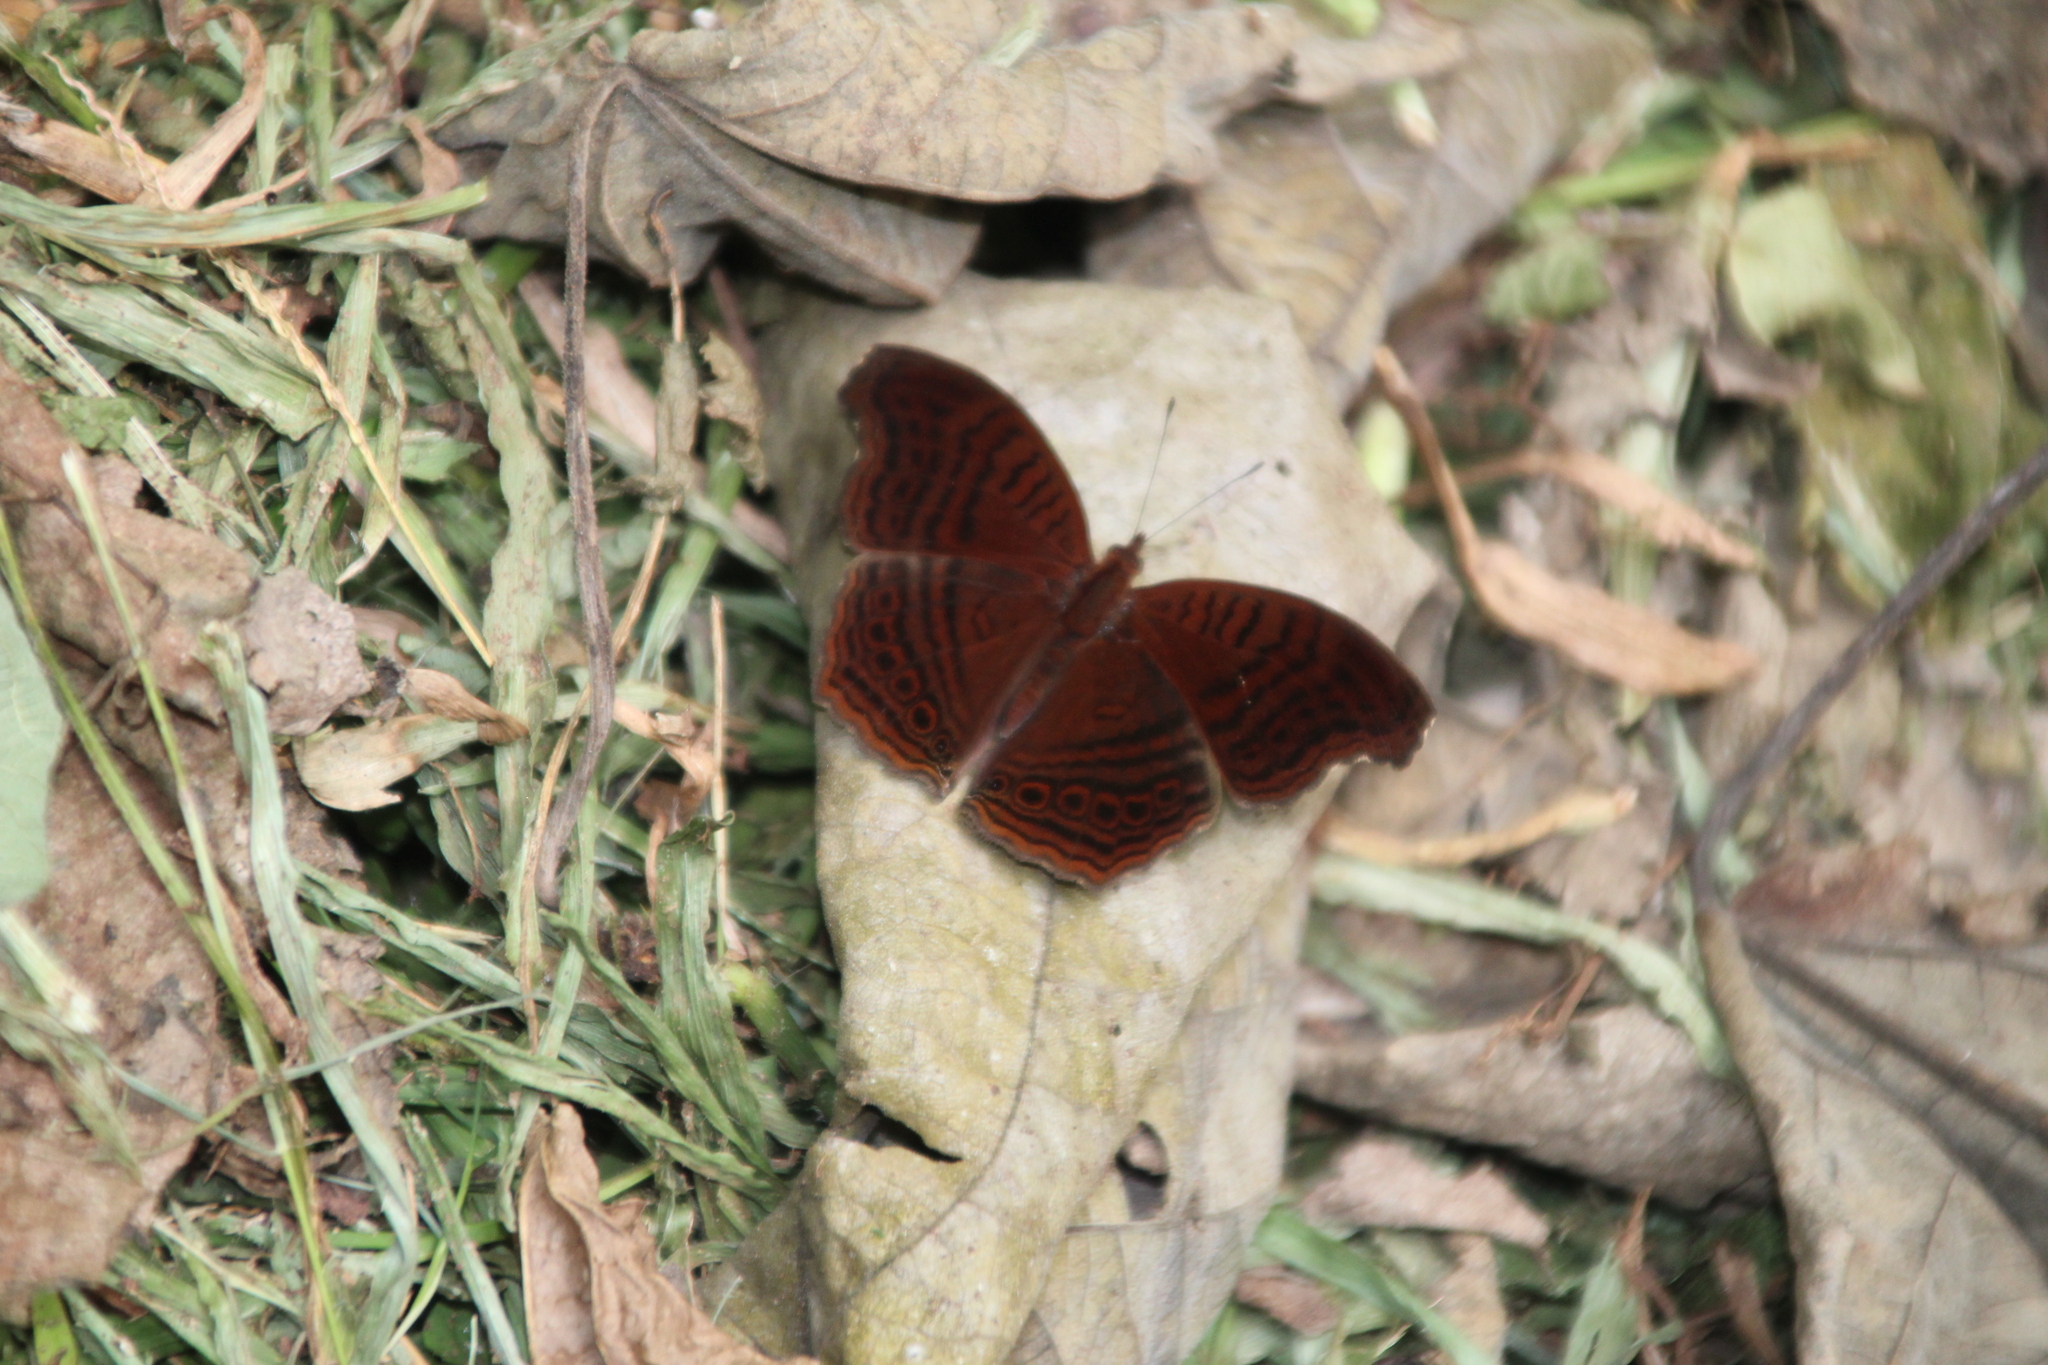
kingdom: Animalia
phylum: Arthropoda
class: Insecta
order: Lepidoptera
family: Nymphalidae
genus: Junonia
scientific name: Junonia stygia
